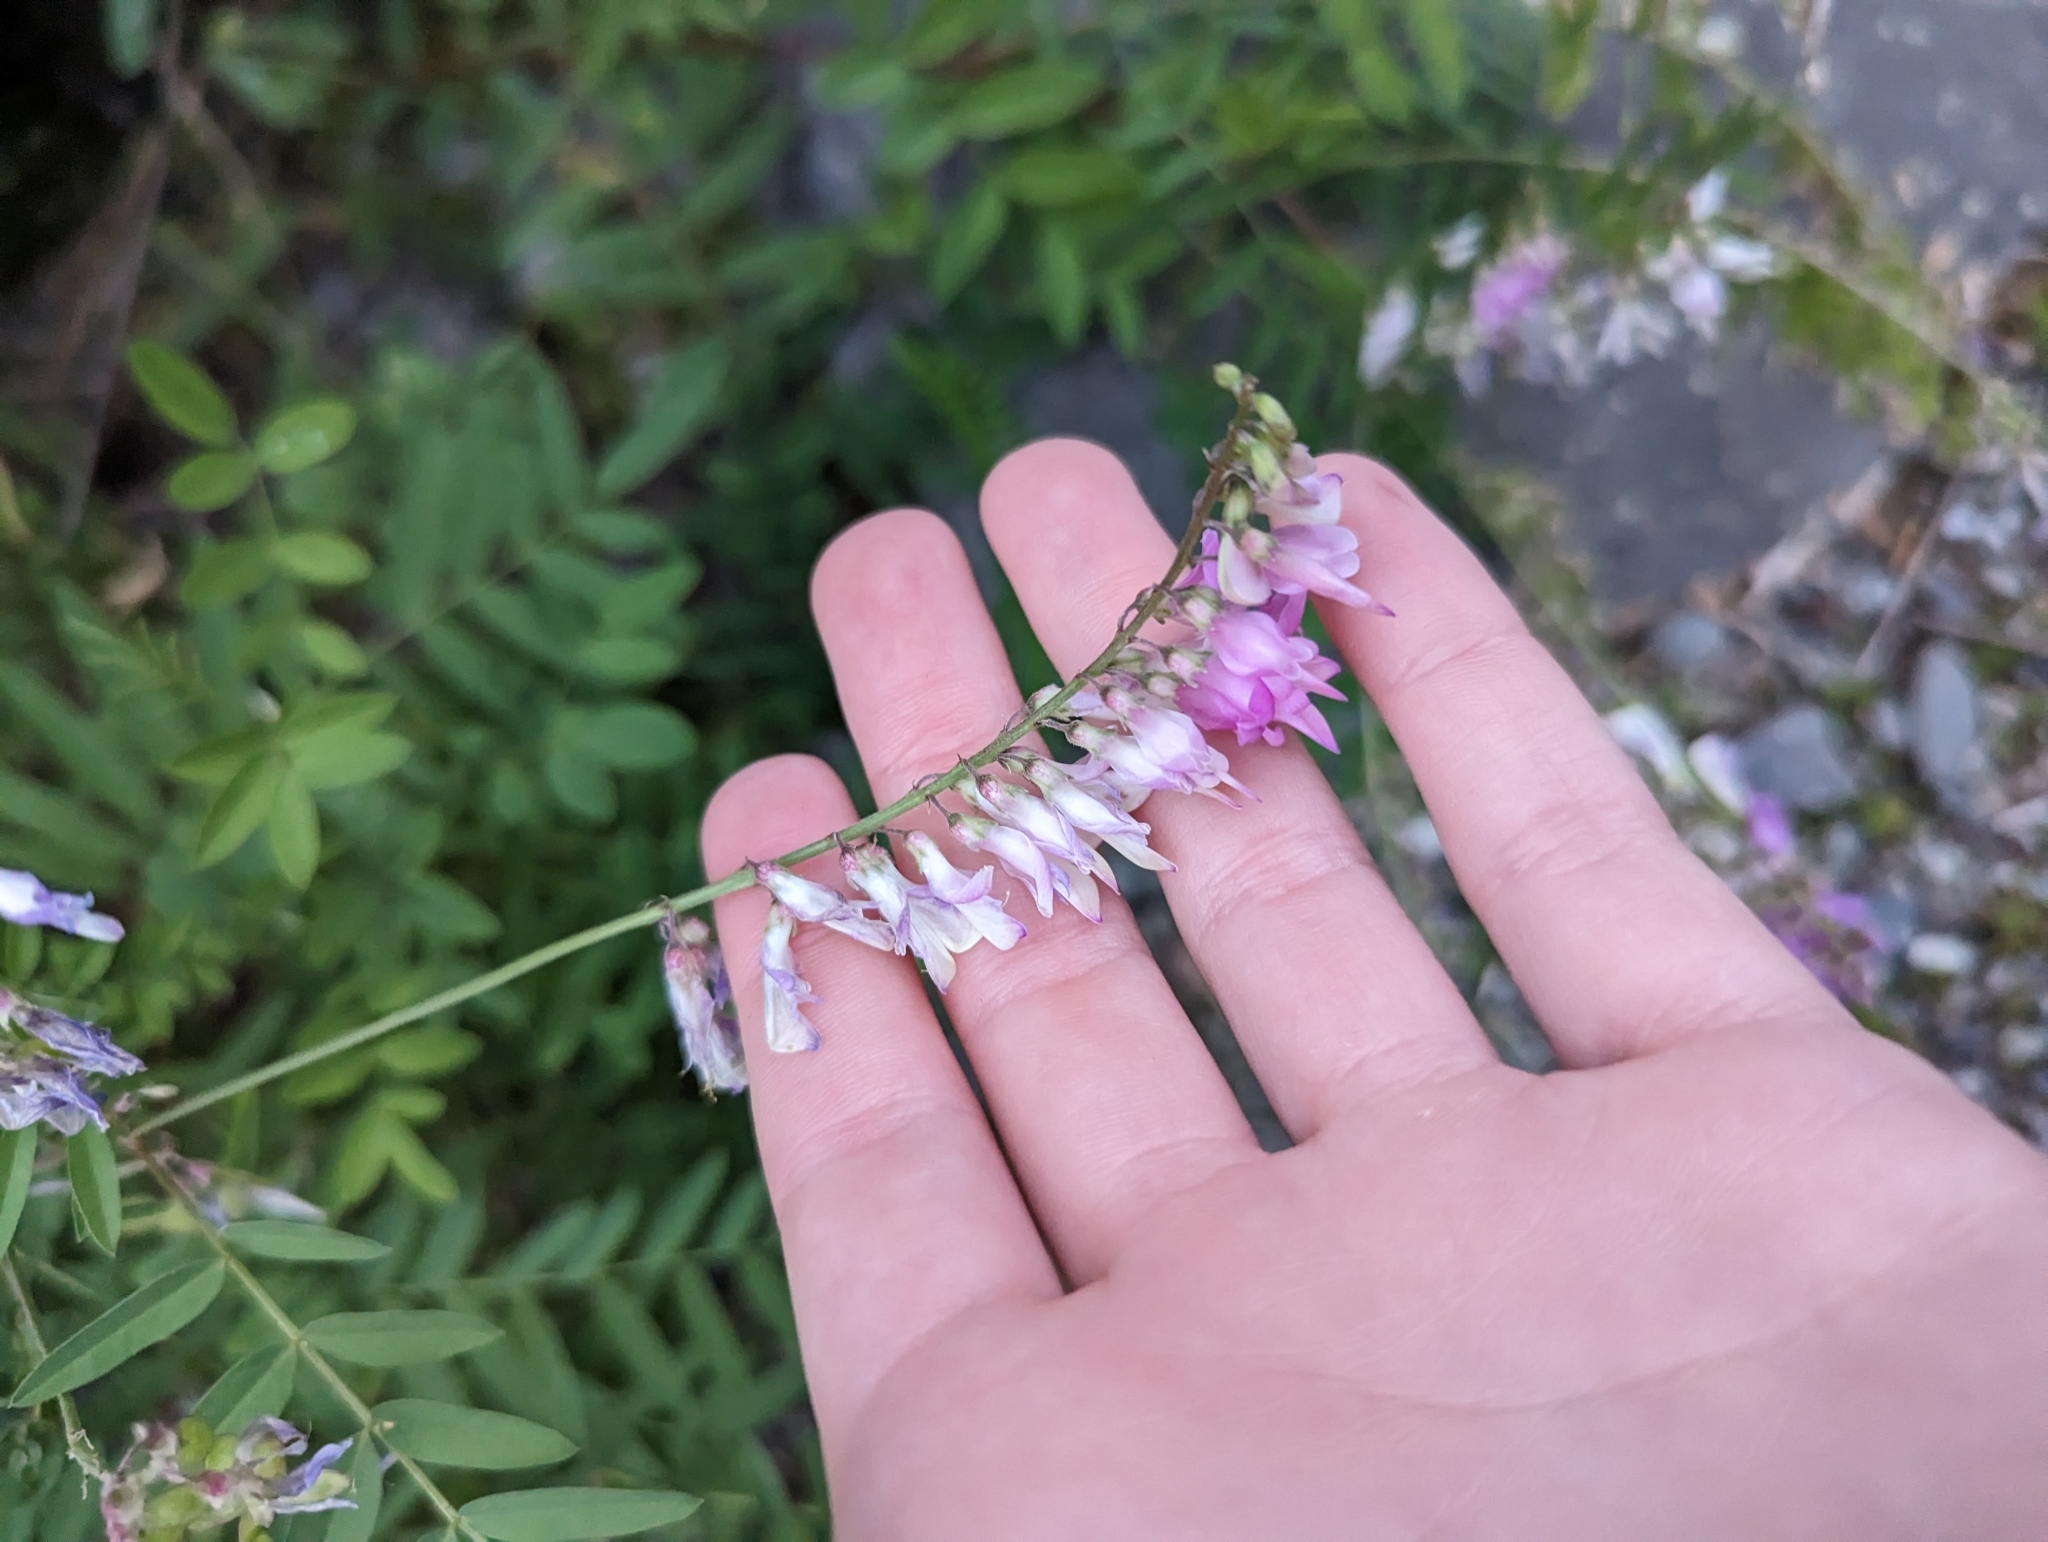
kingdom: Plantae
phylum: Tracheophyta
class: Magnoliopsida
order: Fabales
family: Fabaceae
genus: Hedysarum
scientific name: Hedysarum alpinum
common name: Alpine sweet-vetch
